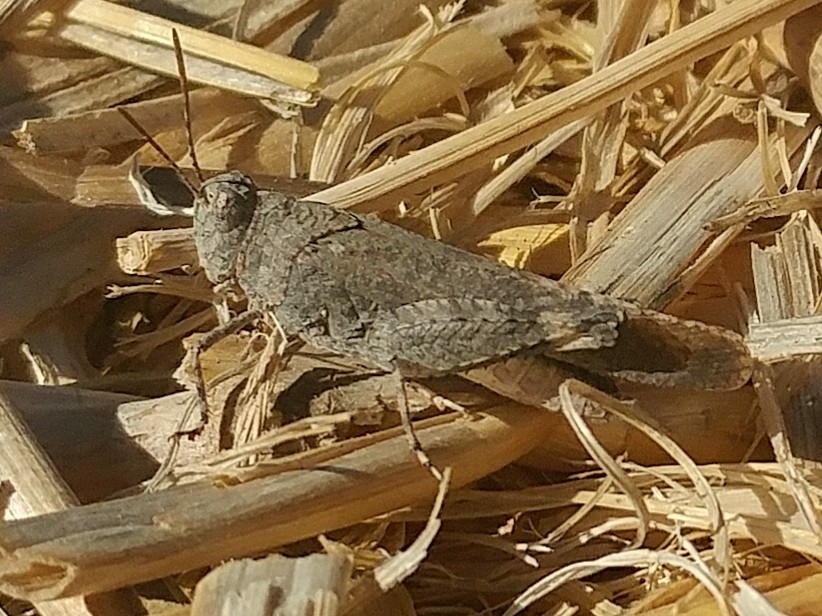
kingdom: Animalia
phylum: Arthropoda
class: Insecta
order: Orthoptera
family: Acrididae
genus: Lactista
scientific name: Lactista gibbosus
